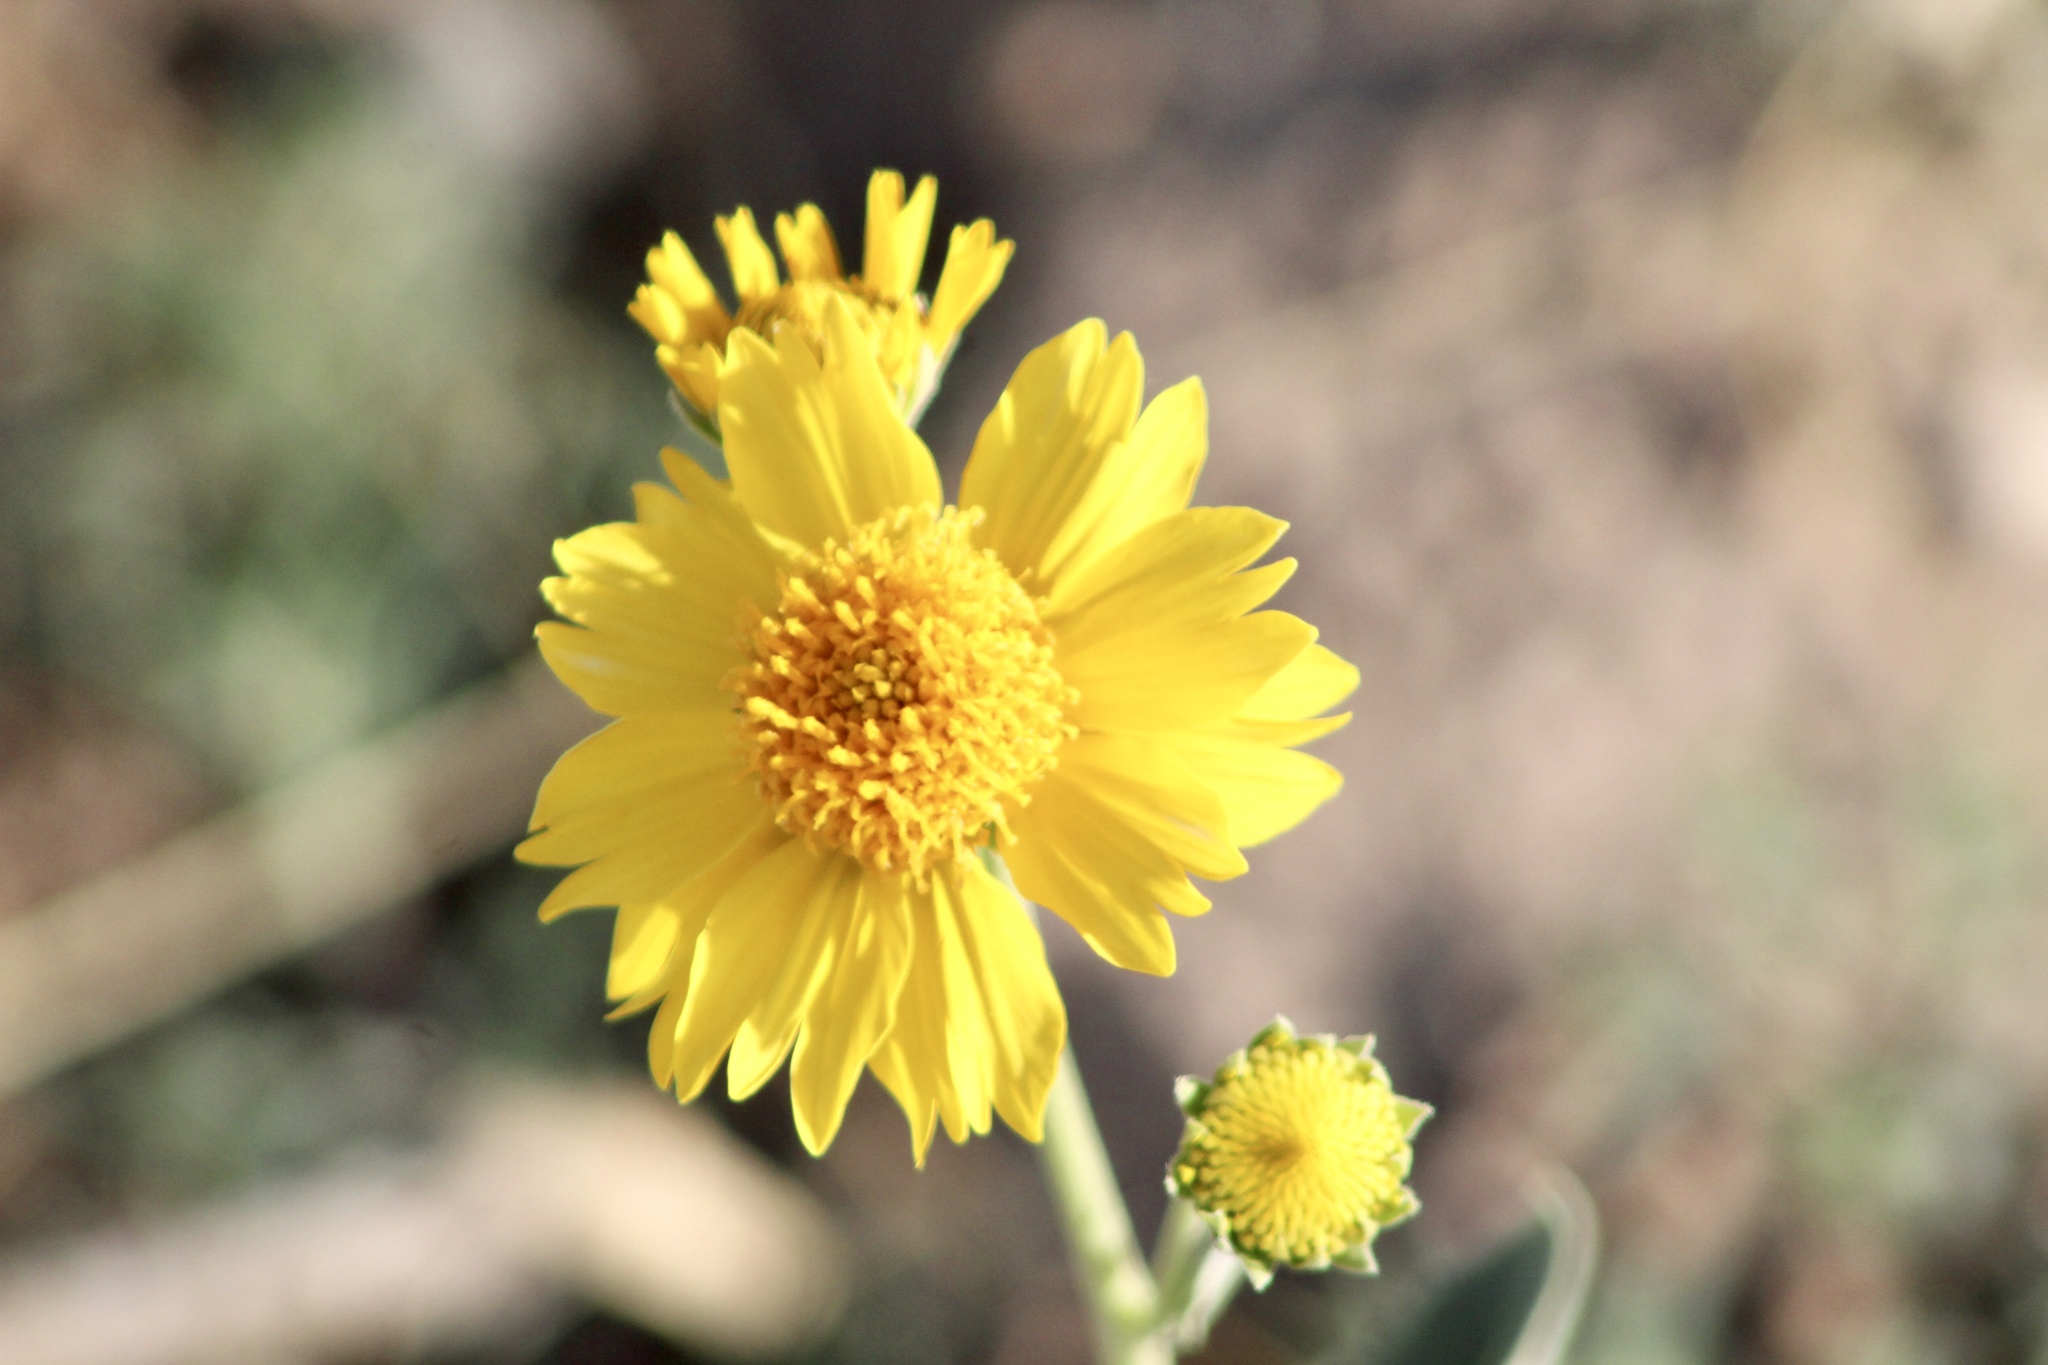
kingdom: Plantae
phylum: Tracheophyta
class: Magnoliopsida
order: Asterales
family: Asteraceae
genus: Verbesina
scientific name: Verbesina encelioides
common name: Golden crownbeard
